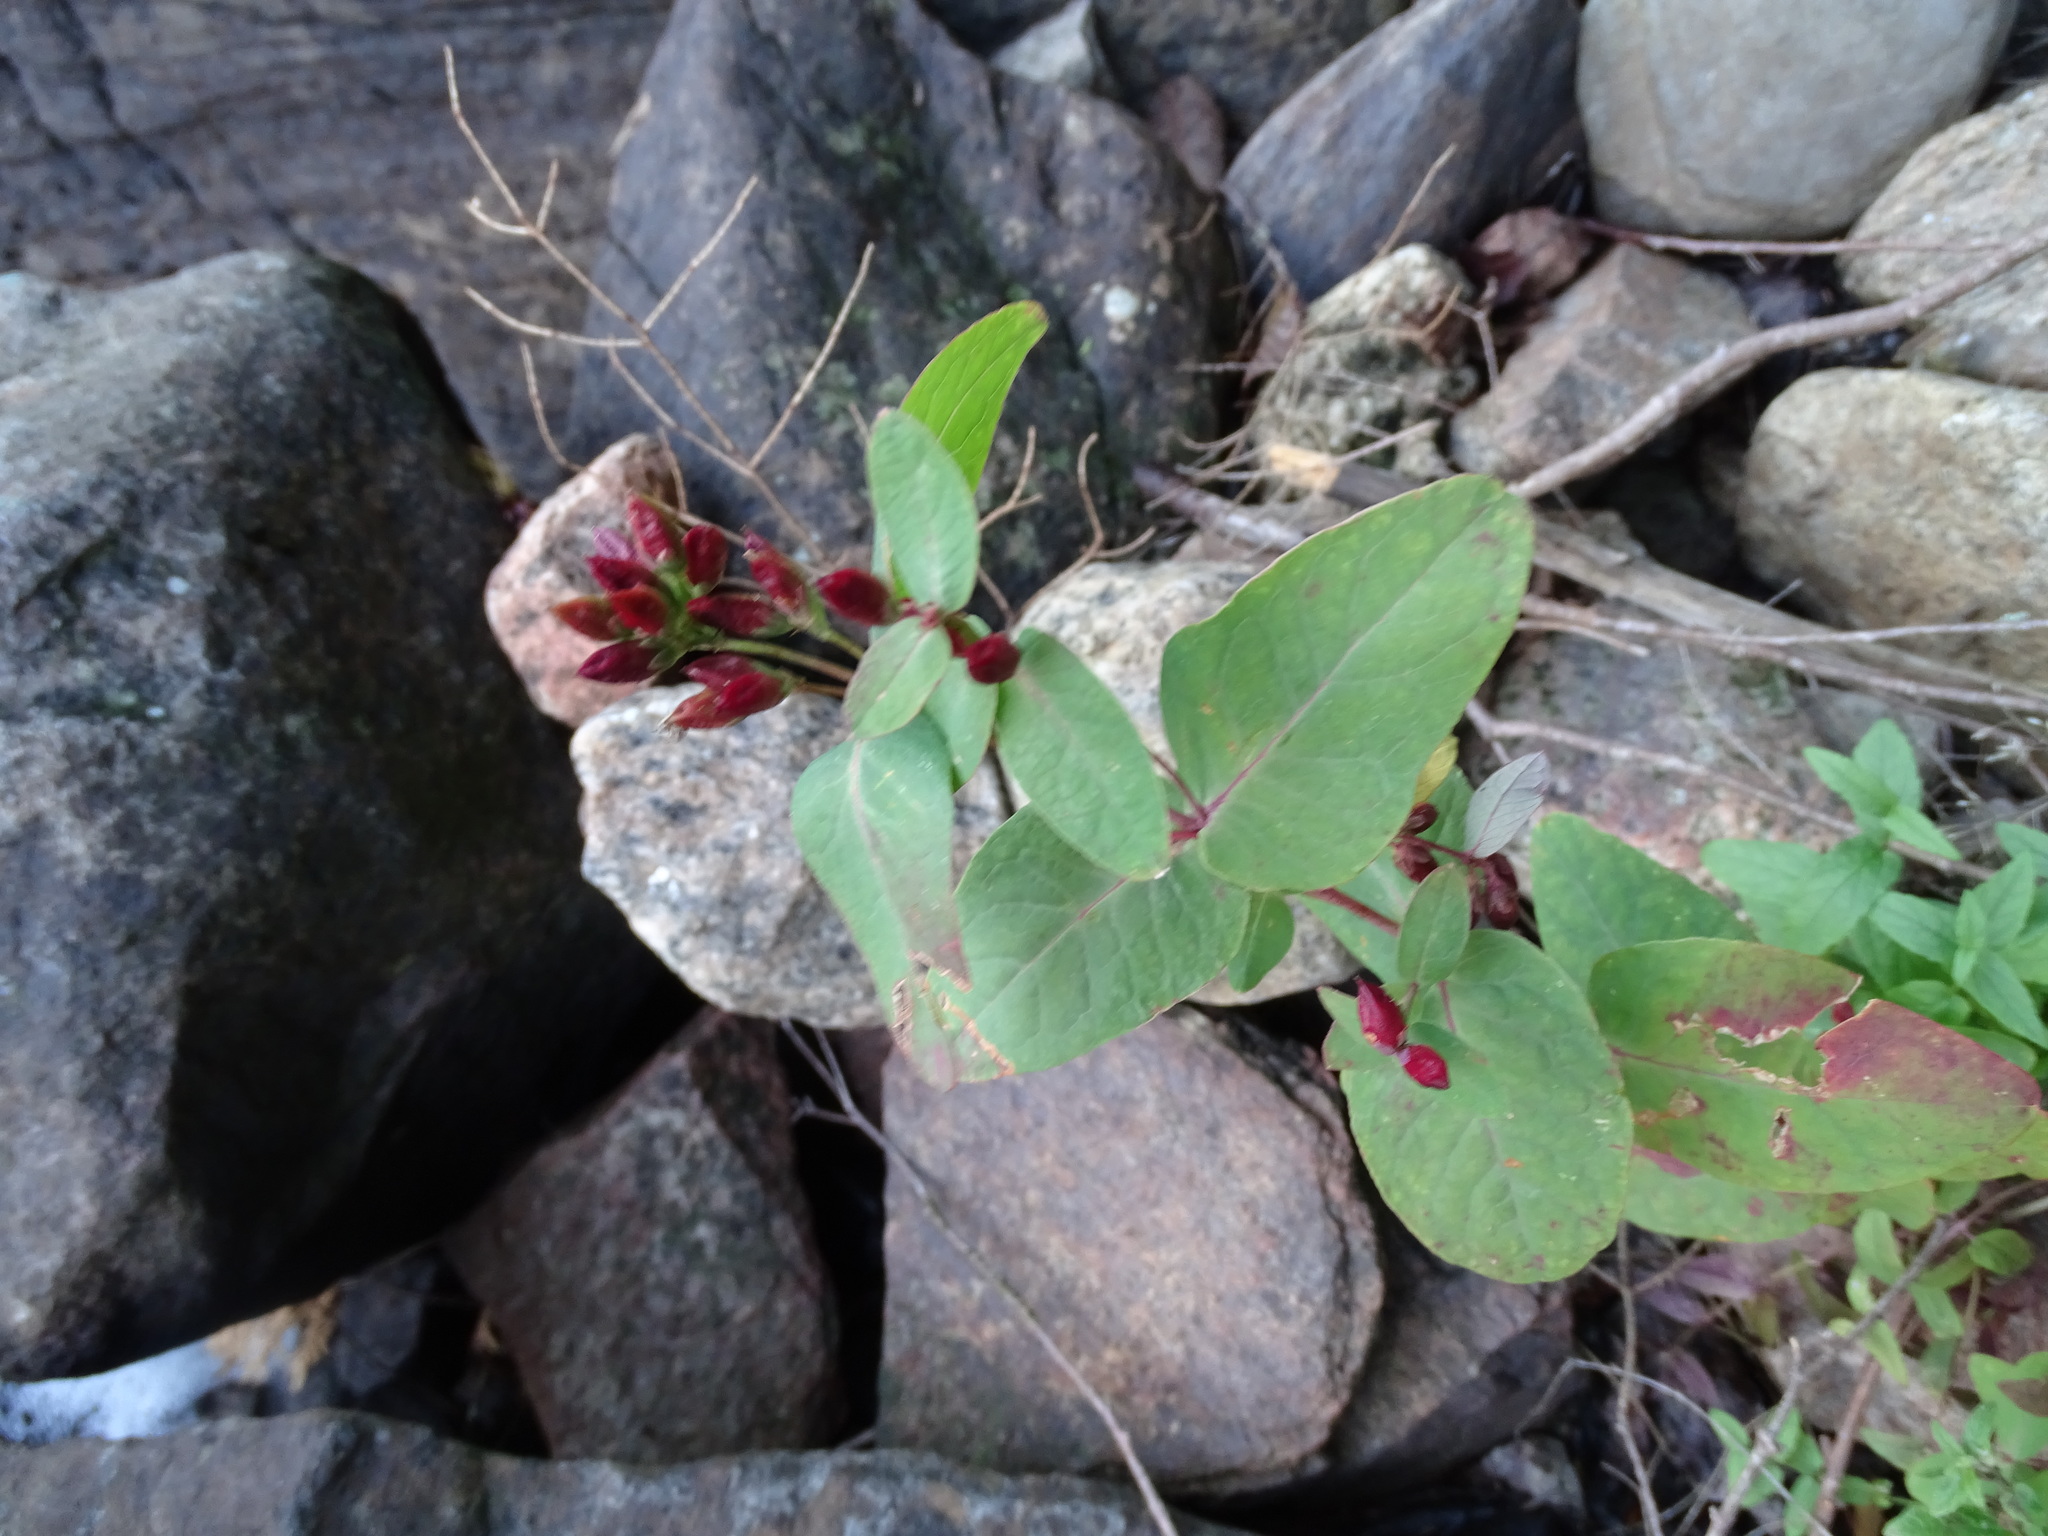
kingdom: Plantae
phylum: Tracheophyta
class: Magnoliopsida
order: Malpighiales
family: Hypericaceae
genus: Triadenum
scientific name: Triadenum fraseri
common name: Fraser's marsh st. johnswort
